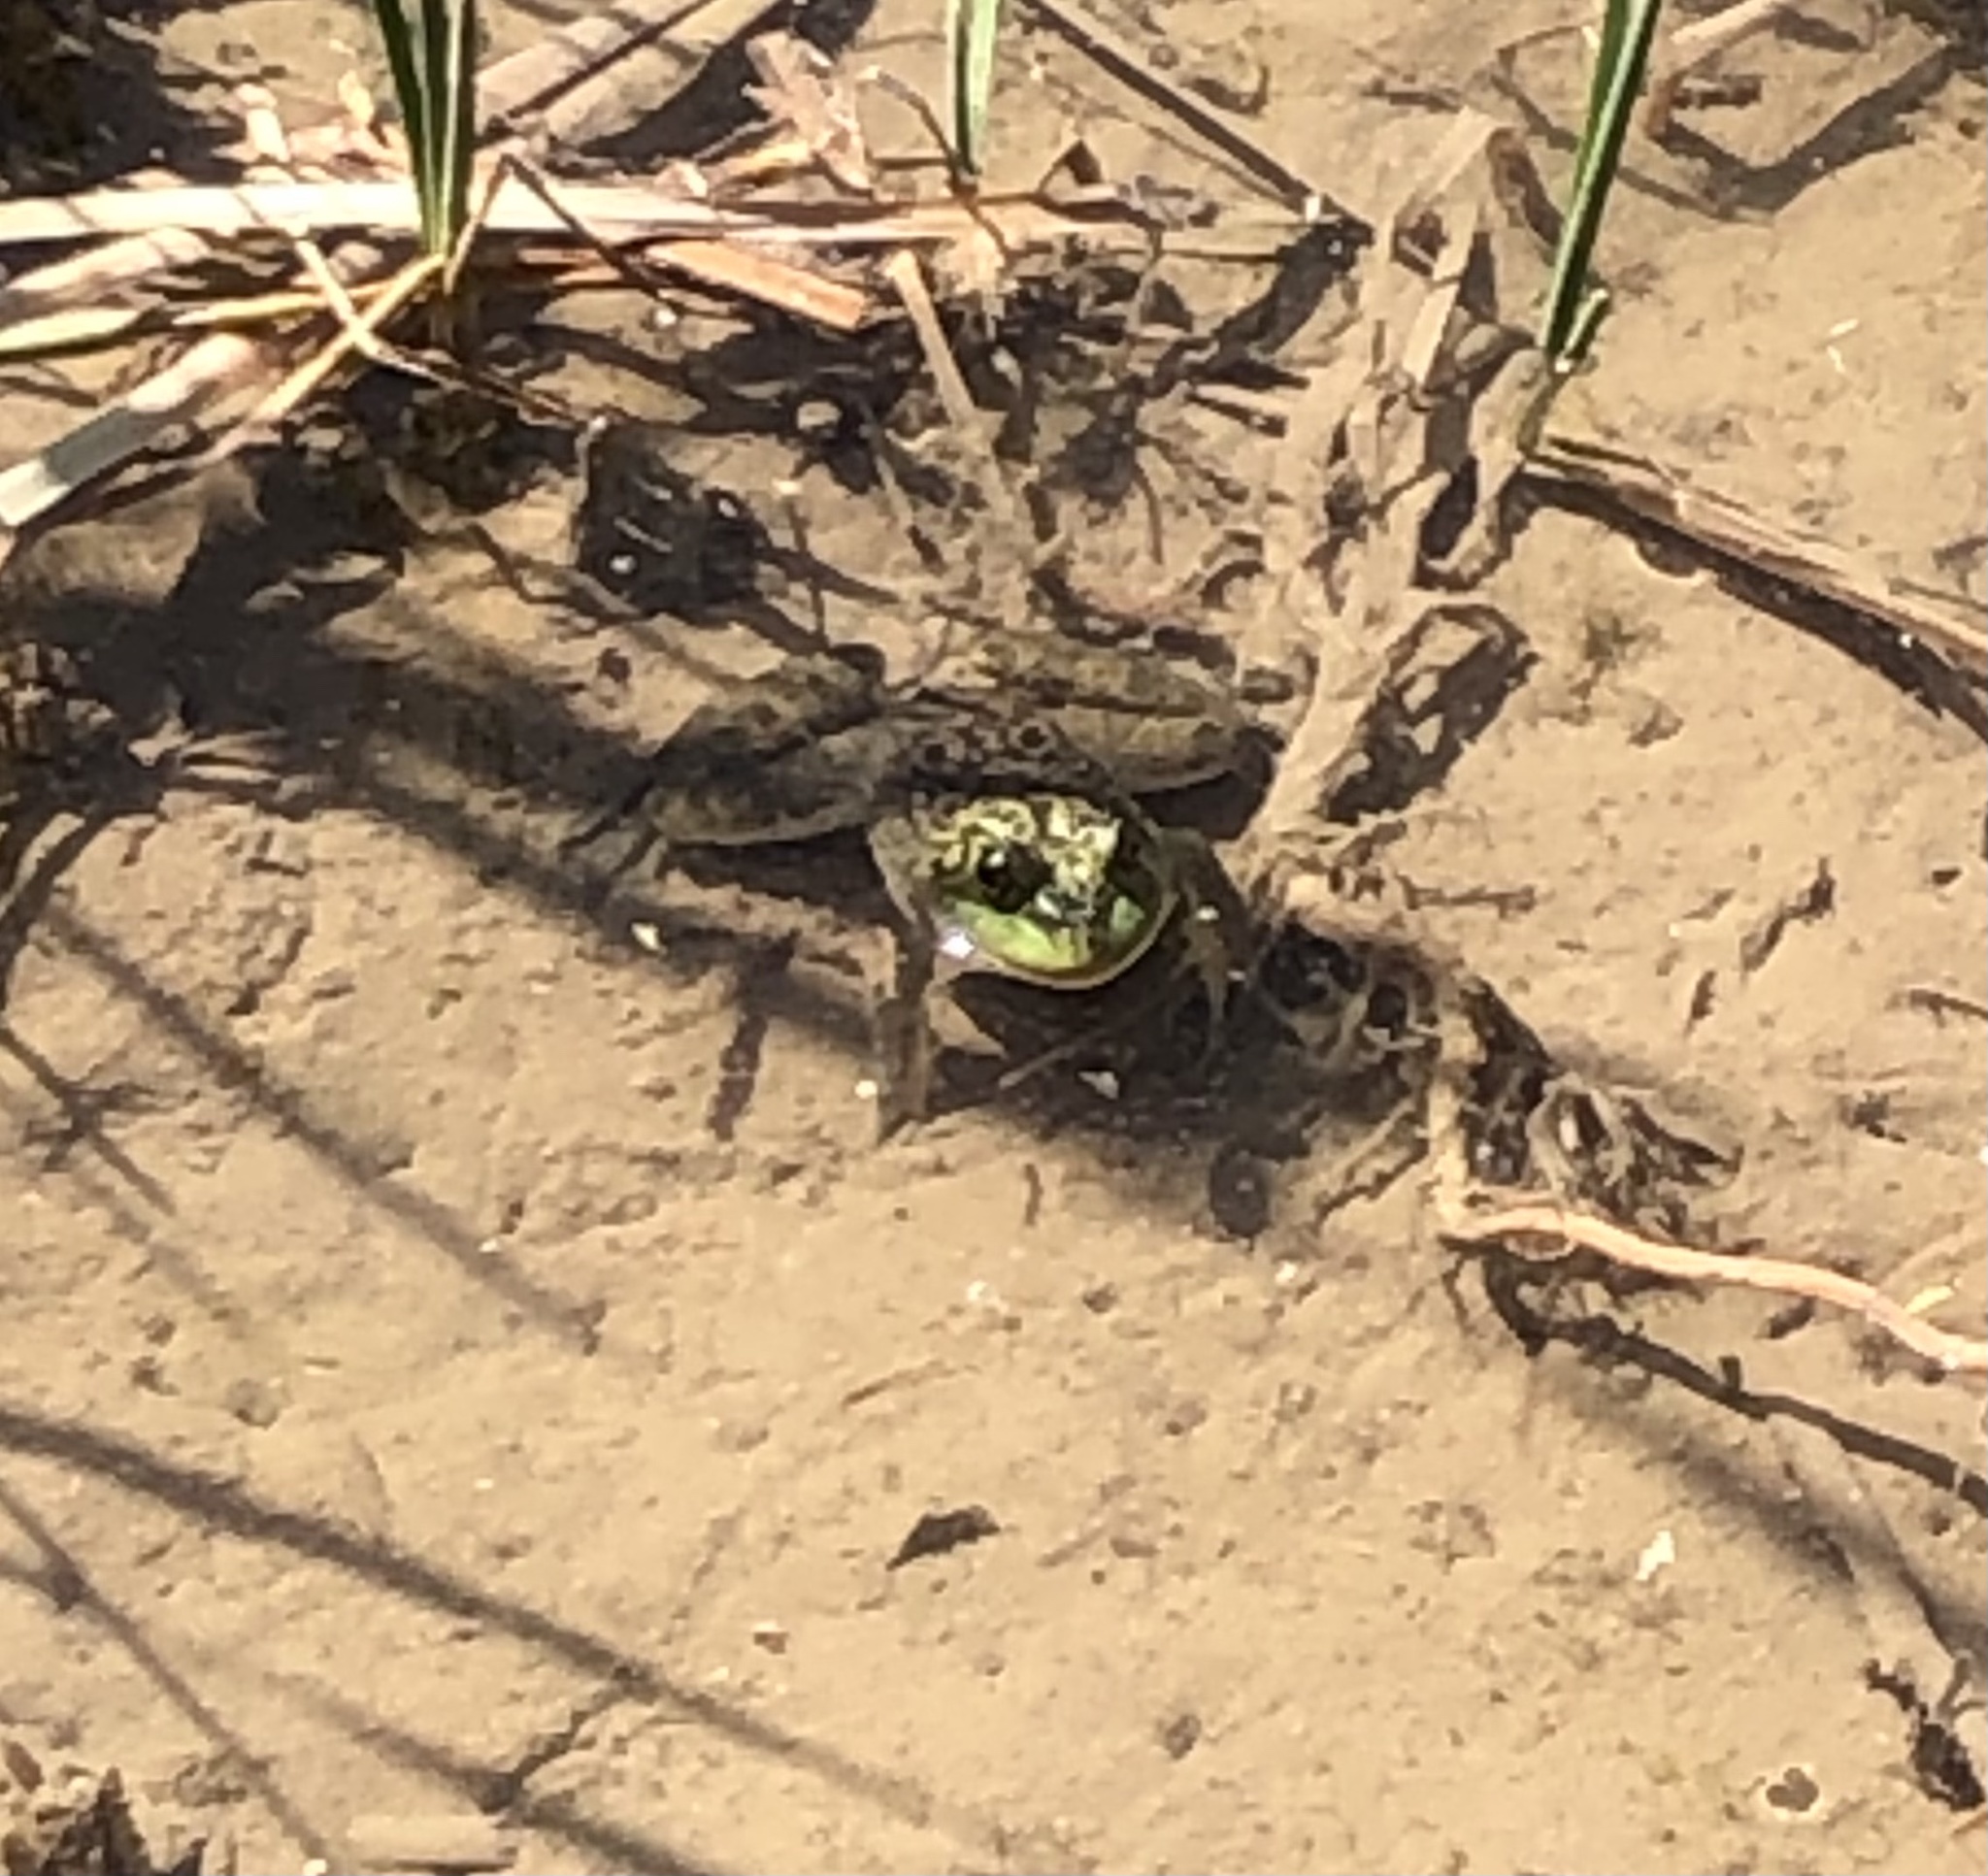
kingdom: Animalia
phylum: Chordata
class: Amphibia
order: Anura
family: Ranidae
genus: Lithobates
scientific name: Lithobates catesbeianus
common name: American bullfrog
